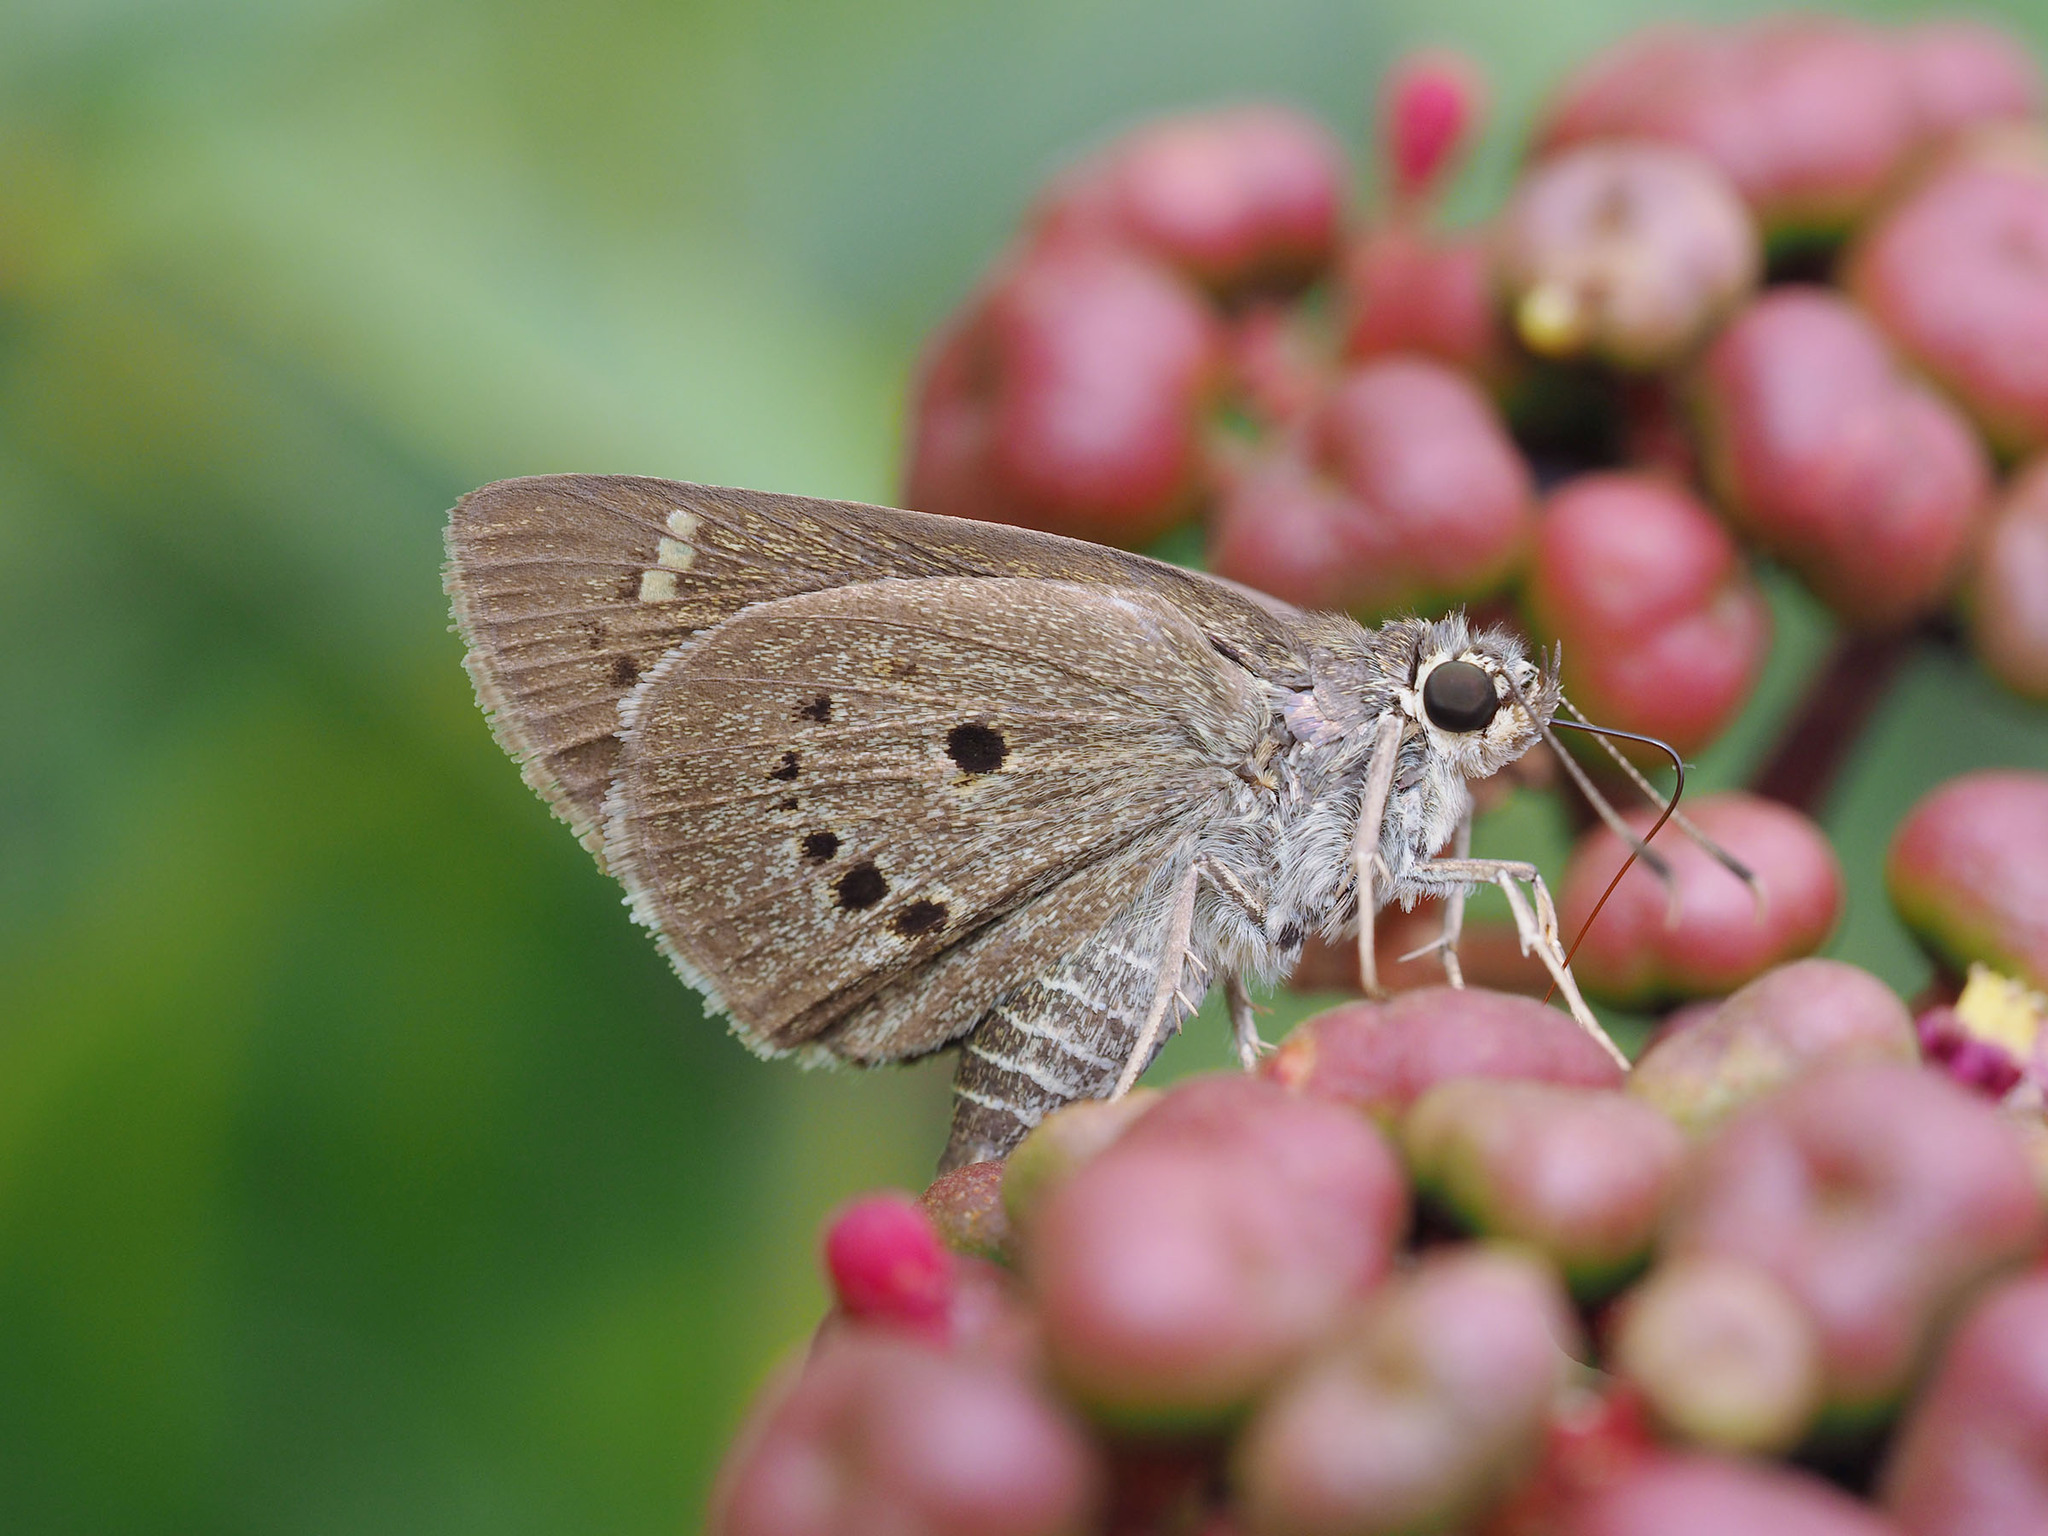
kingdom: Animalia
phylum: Arthropoda
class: Insecta
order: Lepidoptera
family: Hesperiidae
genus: Suastus
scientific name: Suastus gremius
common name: Indian palm bob
